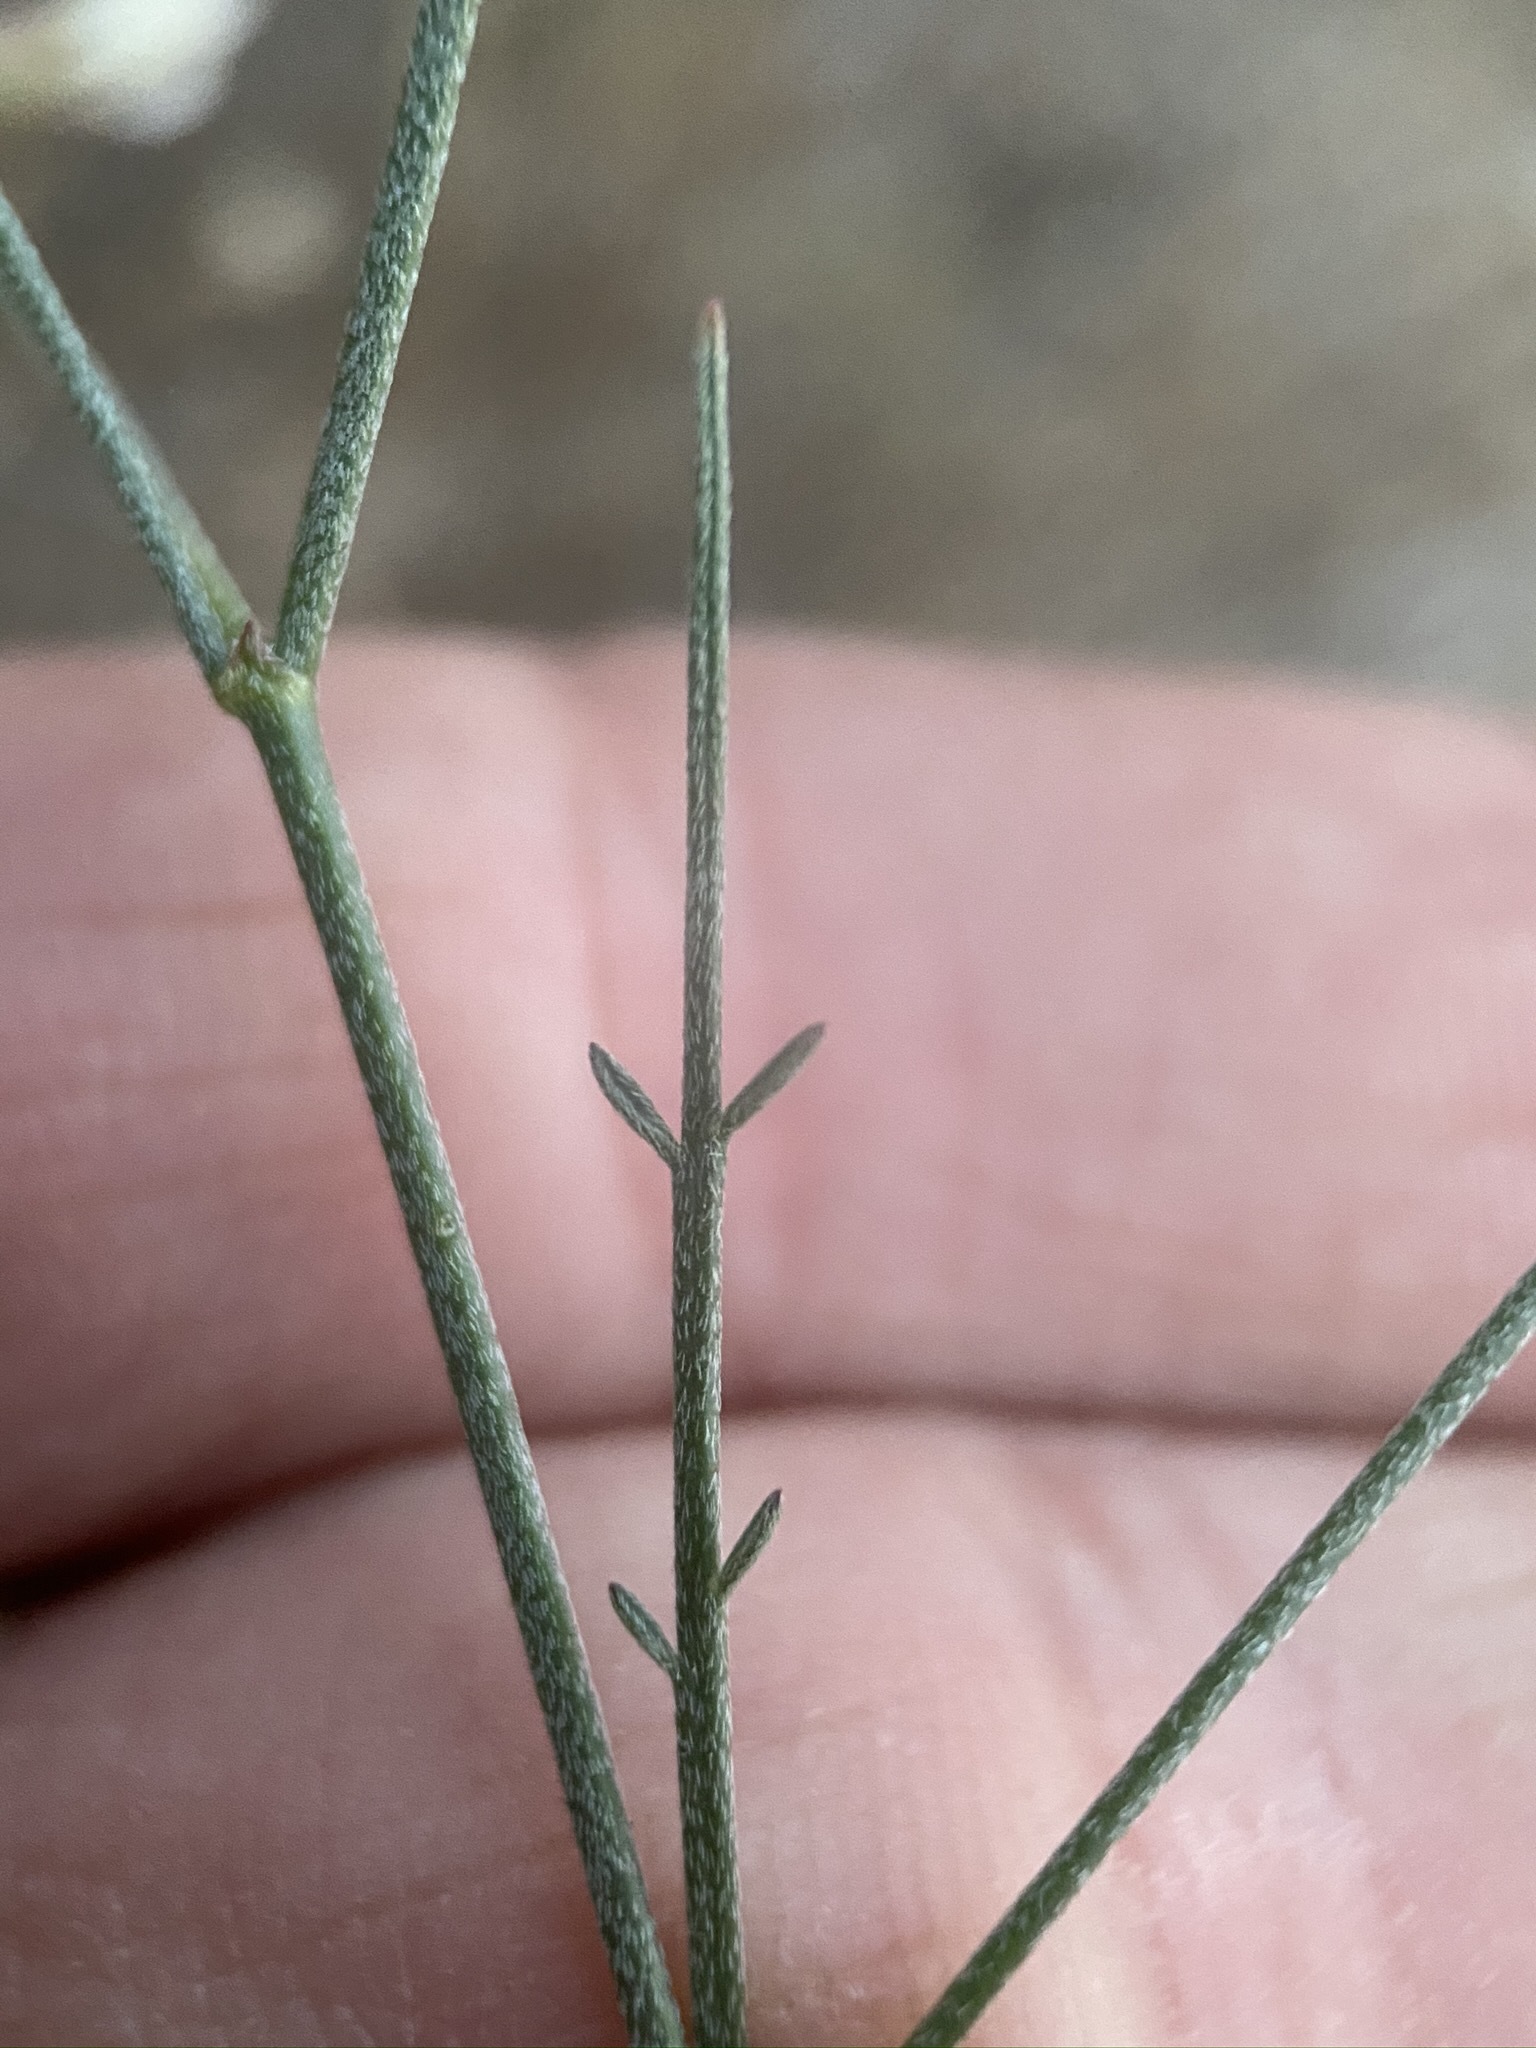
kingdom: Plantae
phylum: Tracheophyta
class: Magnoliopsida
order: Fabales
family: Fabaceae
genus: Astragalus
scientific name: Astragalus convallarius
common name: Lesser rushy milk-vetch
